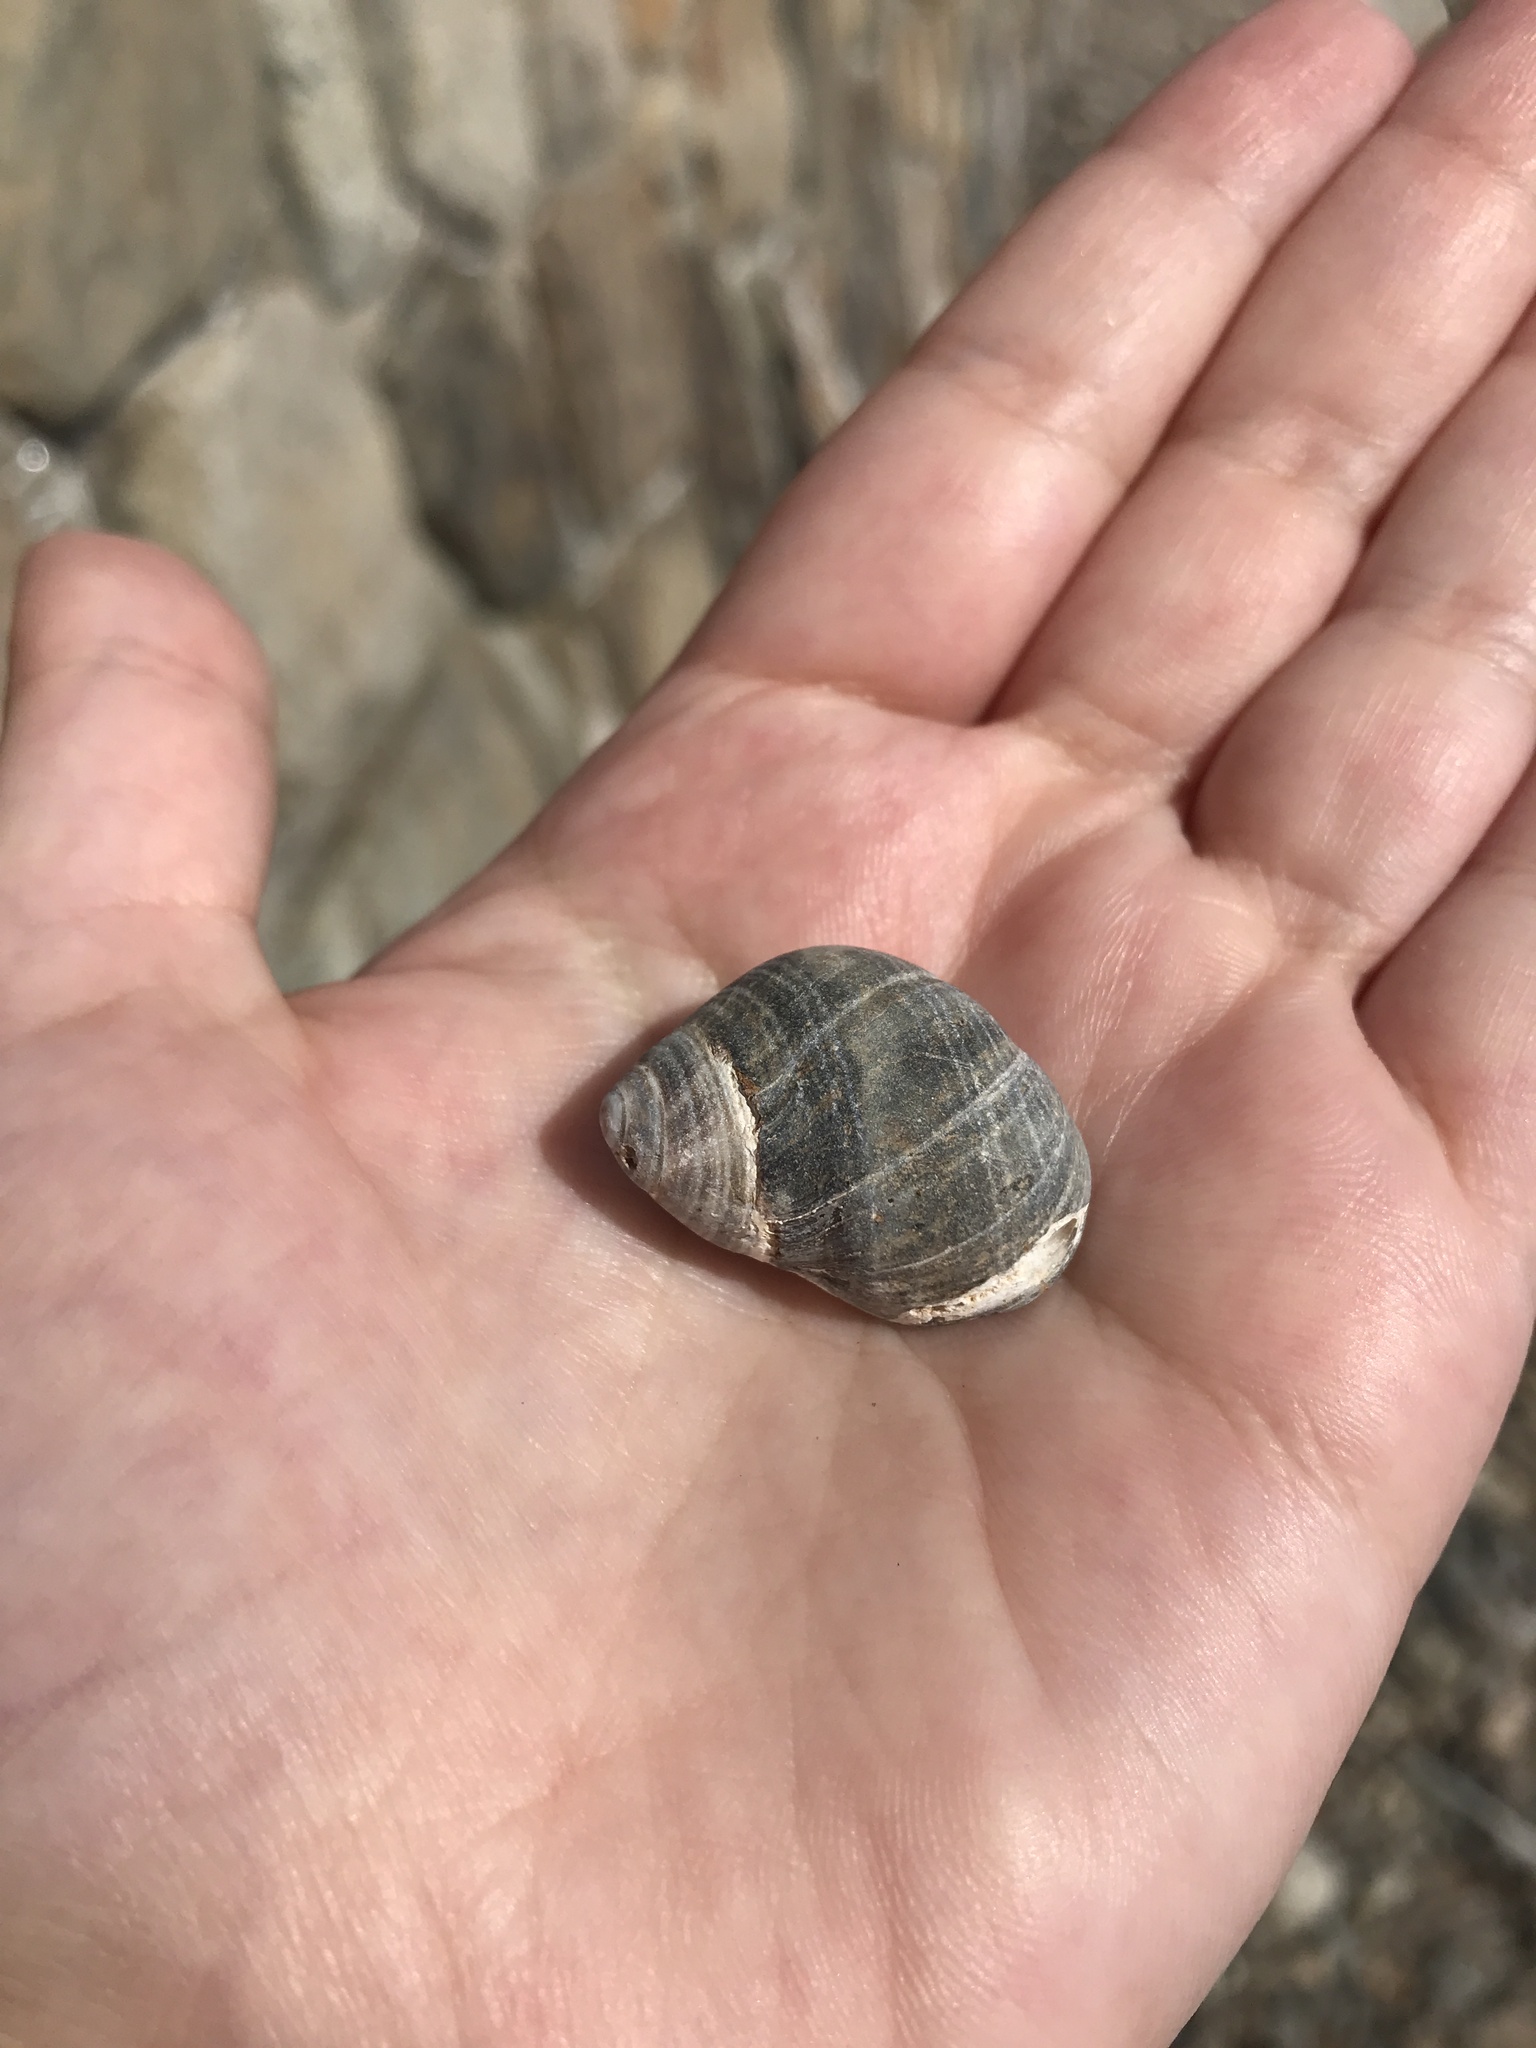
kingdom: Animalia
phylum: Mollusca
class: Gastropoda
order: Littorinimorpha
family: Littorinidae
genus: Littorina
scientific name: Littorina littorea
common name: Common periwinkle
